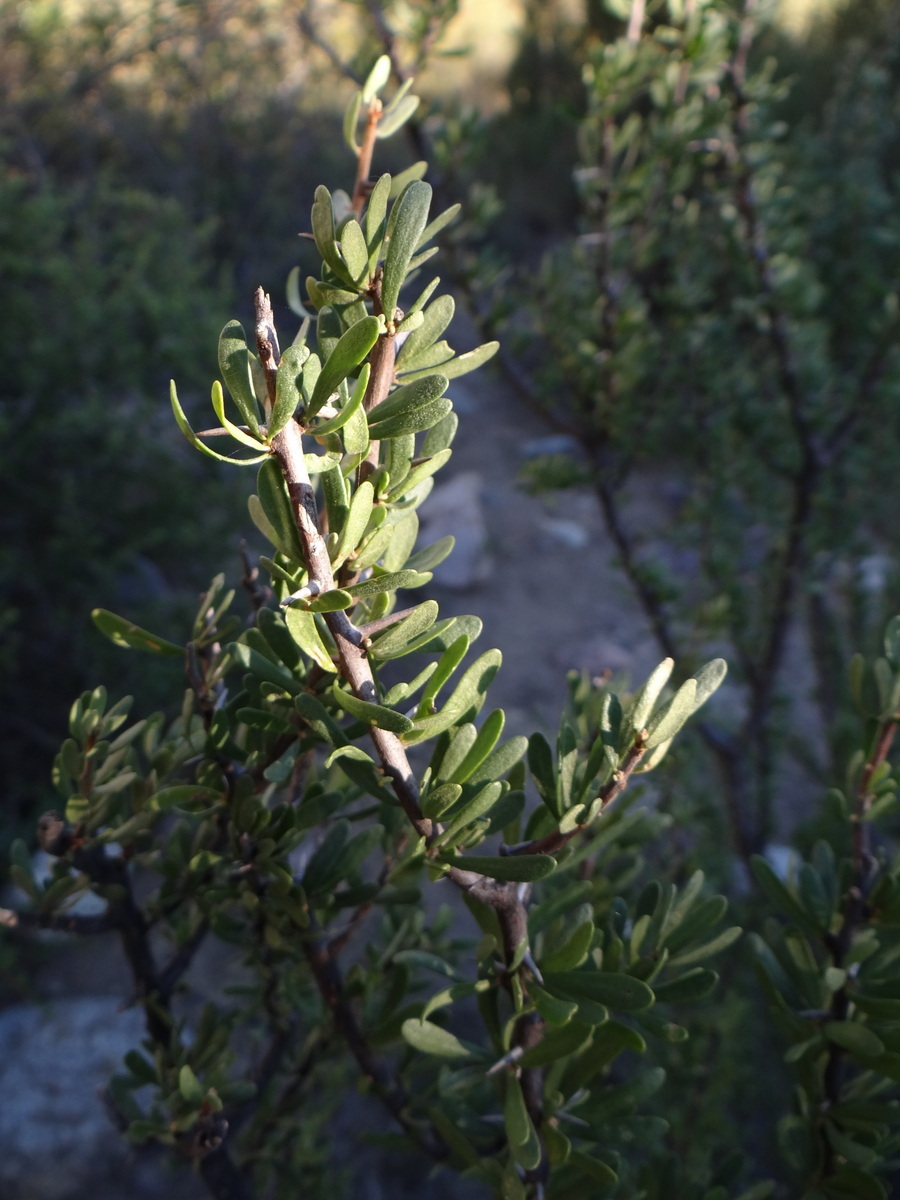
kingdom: Plantae
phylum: Tracheophyta
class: Magnoliopsida
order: Caryophyllales
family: Nyctaginaceae
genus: Bougainvillea
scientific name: Bougainvillea spinosa
